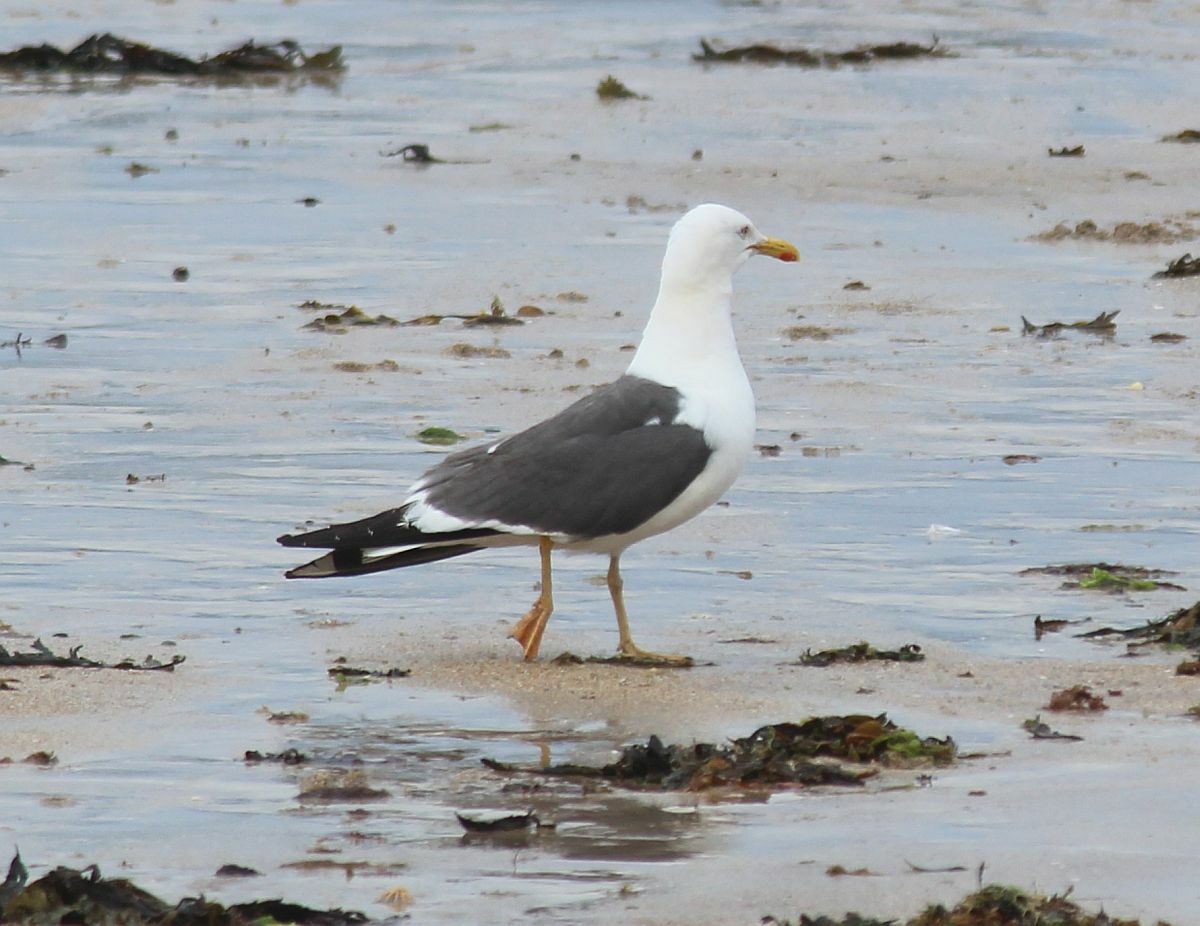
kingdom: Animalia
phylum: Chordata
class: Aves
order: Charadriiformes
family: Laridae
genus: Larus
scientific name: Larus fuscus
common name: Lesser black-backed gull
